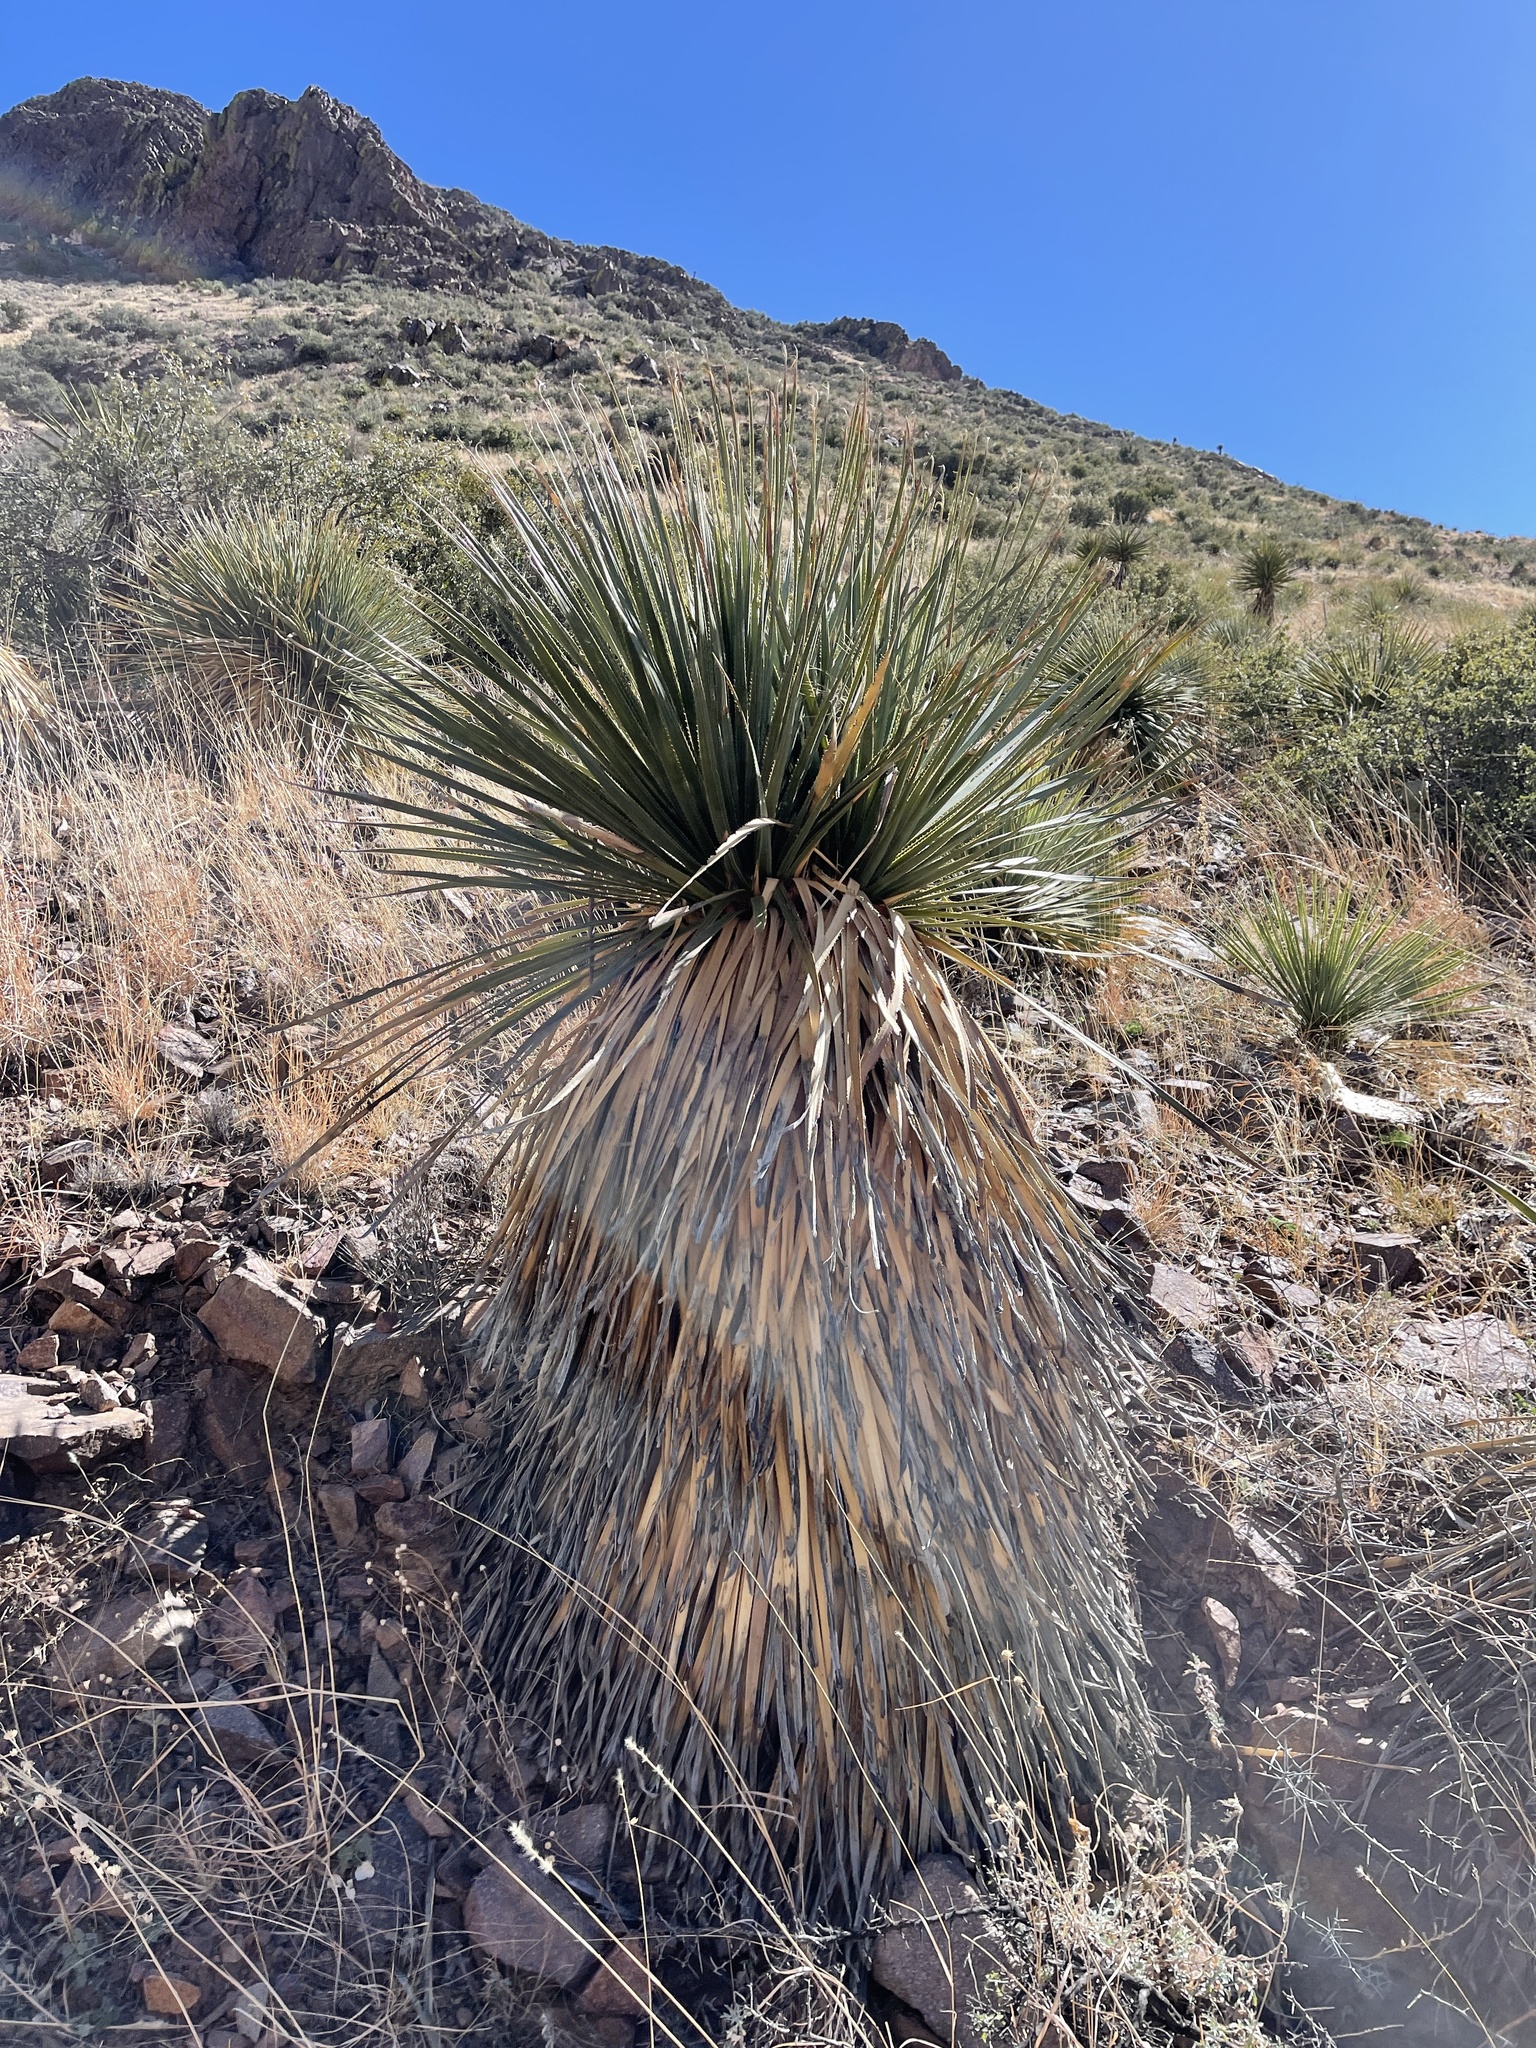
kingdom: Plantae
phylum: Tracheophyta
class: Liliopsida
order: Asparagales
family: Asparagaceae
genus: Dasylirion
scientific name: Dasylirion wheeleri
